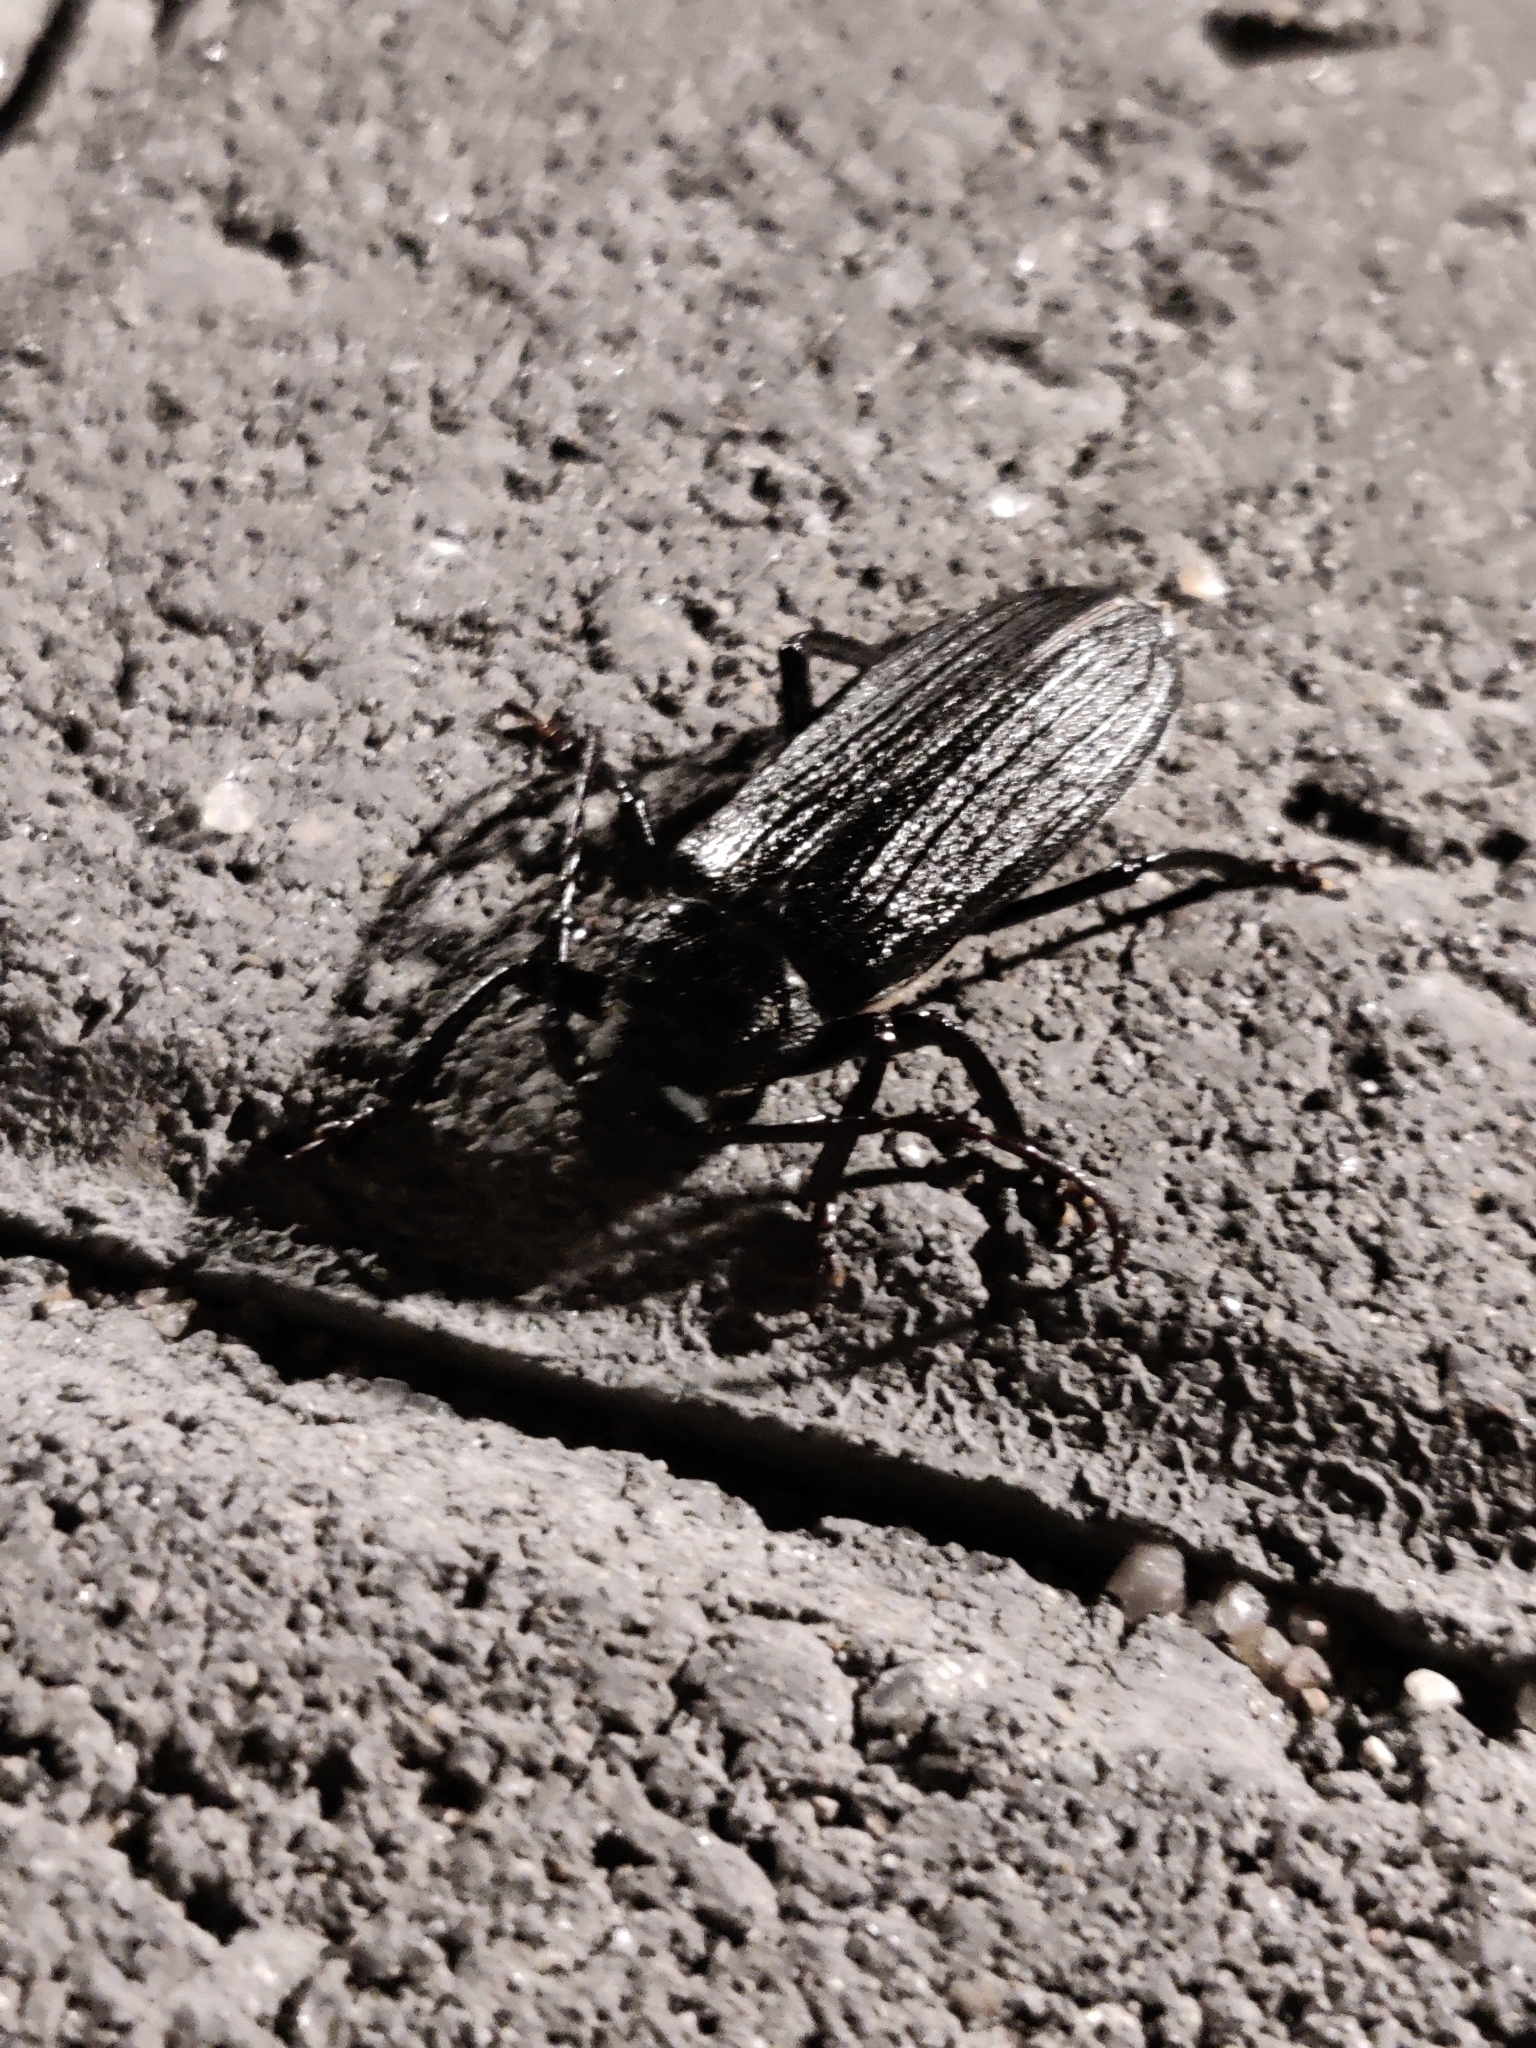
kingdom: Animalia
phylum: Arthropoda
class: Insecta
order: Coleoptera
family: Cerambycidae
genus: Aulacopus
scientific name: Aulacopus reticulatus
